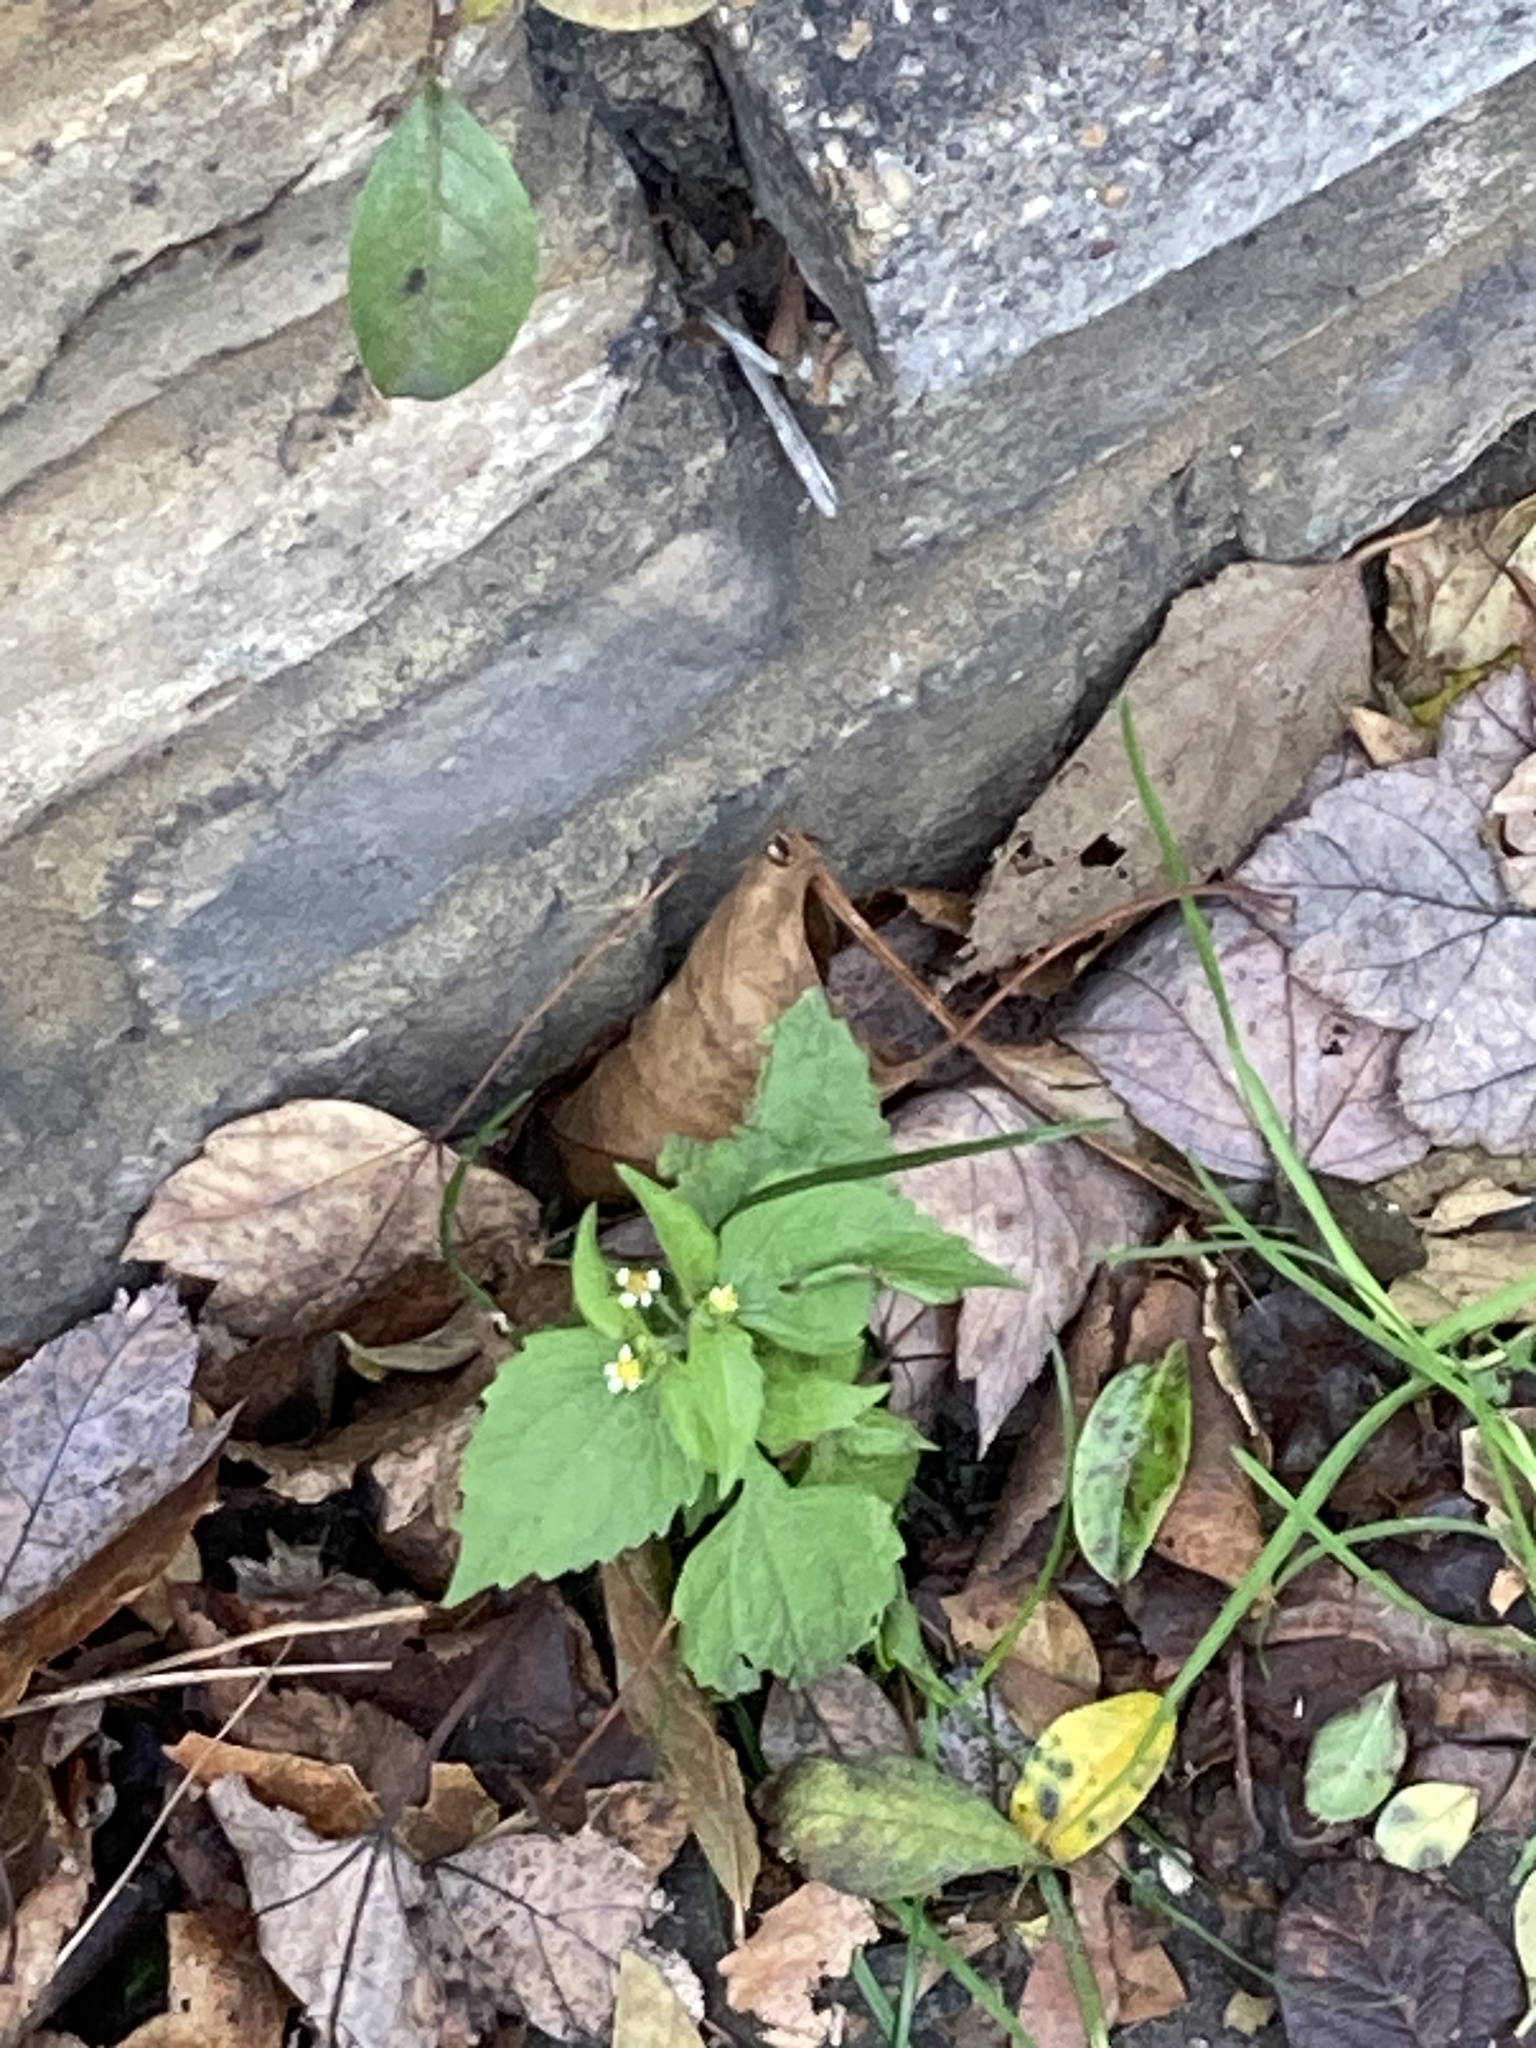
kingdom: Plantae
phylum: Tracheophyta
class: Magnoliopsida
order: Asterales
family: Asteraceae
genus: Galinsoga
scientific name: Galinsoga quadriradiata
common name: Shaggy soldier
